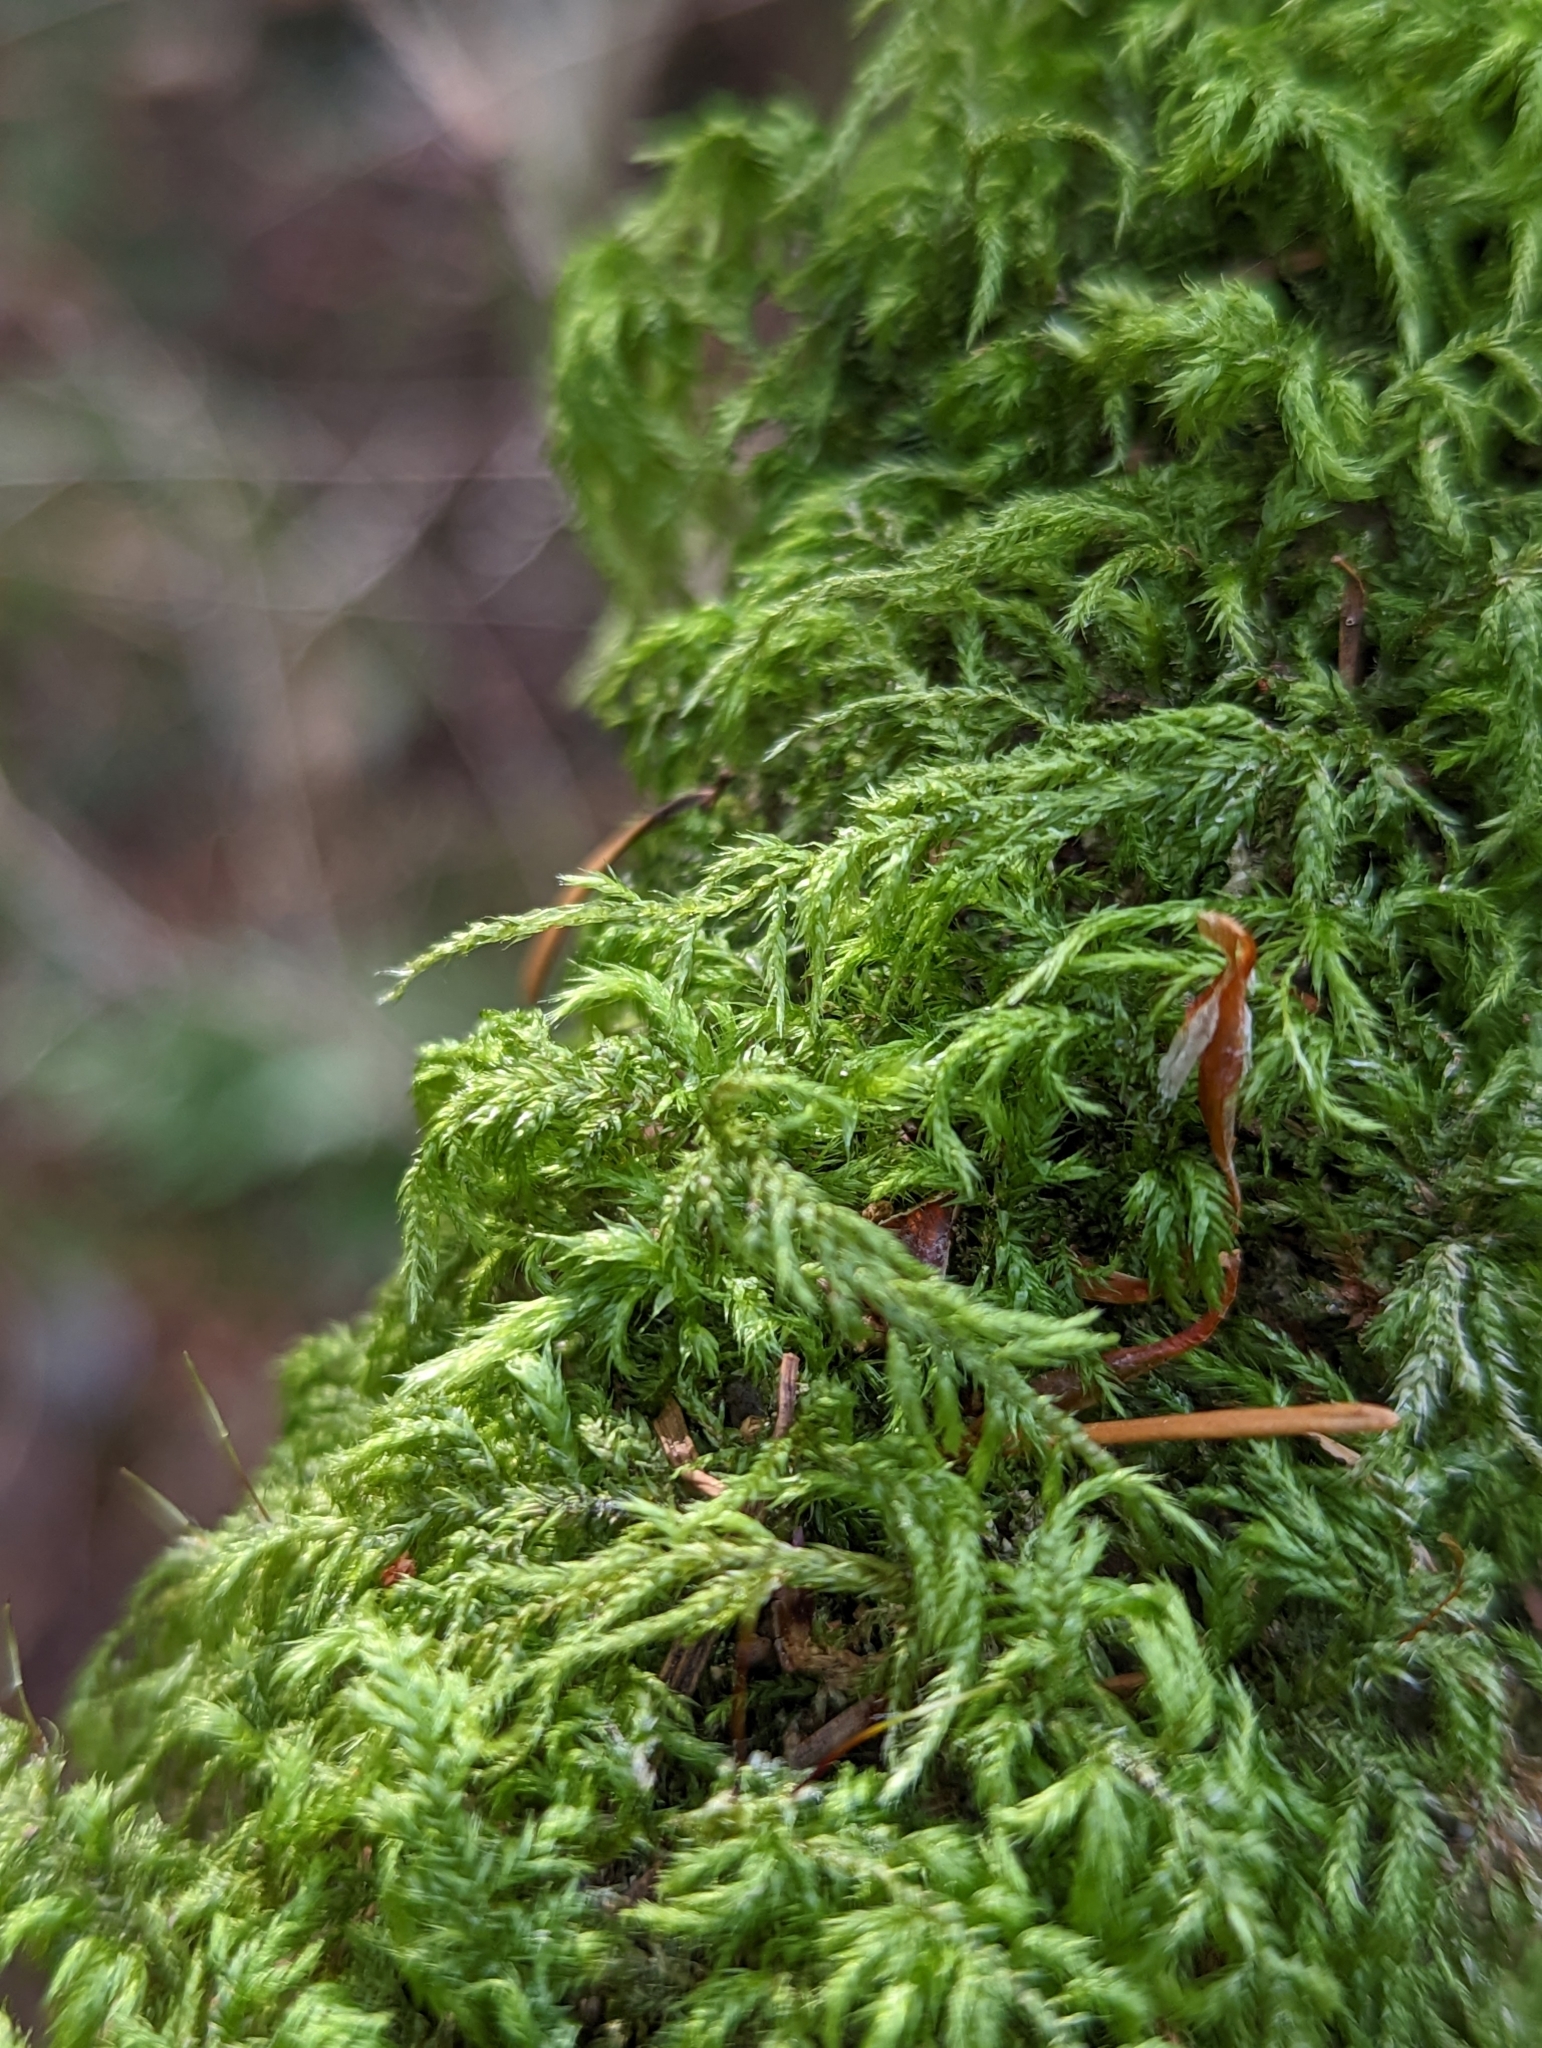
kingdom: Plantae
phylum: Bryophyta
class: Bryopsida
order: Hypnales
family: Lembophyllaceae
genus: Pseudisothecium
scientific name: Pseudisothecium stoloniferum
